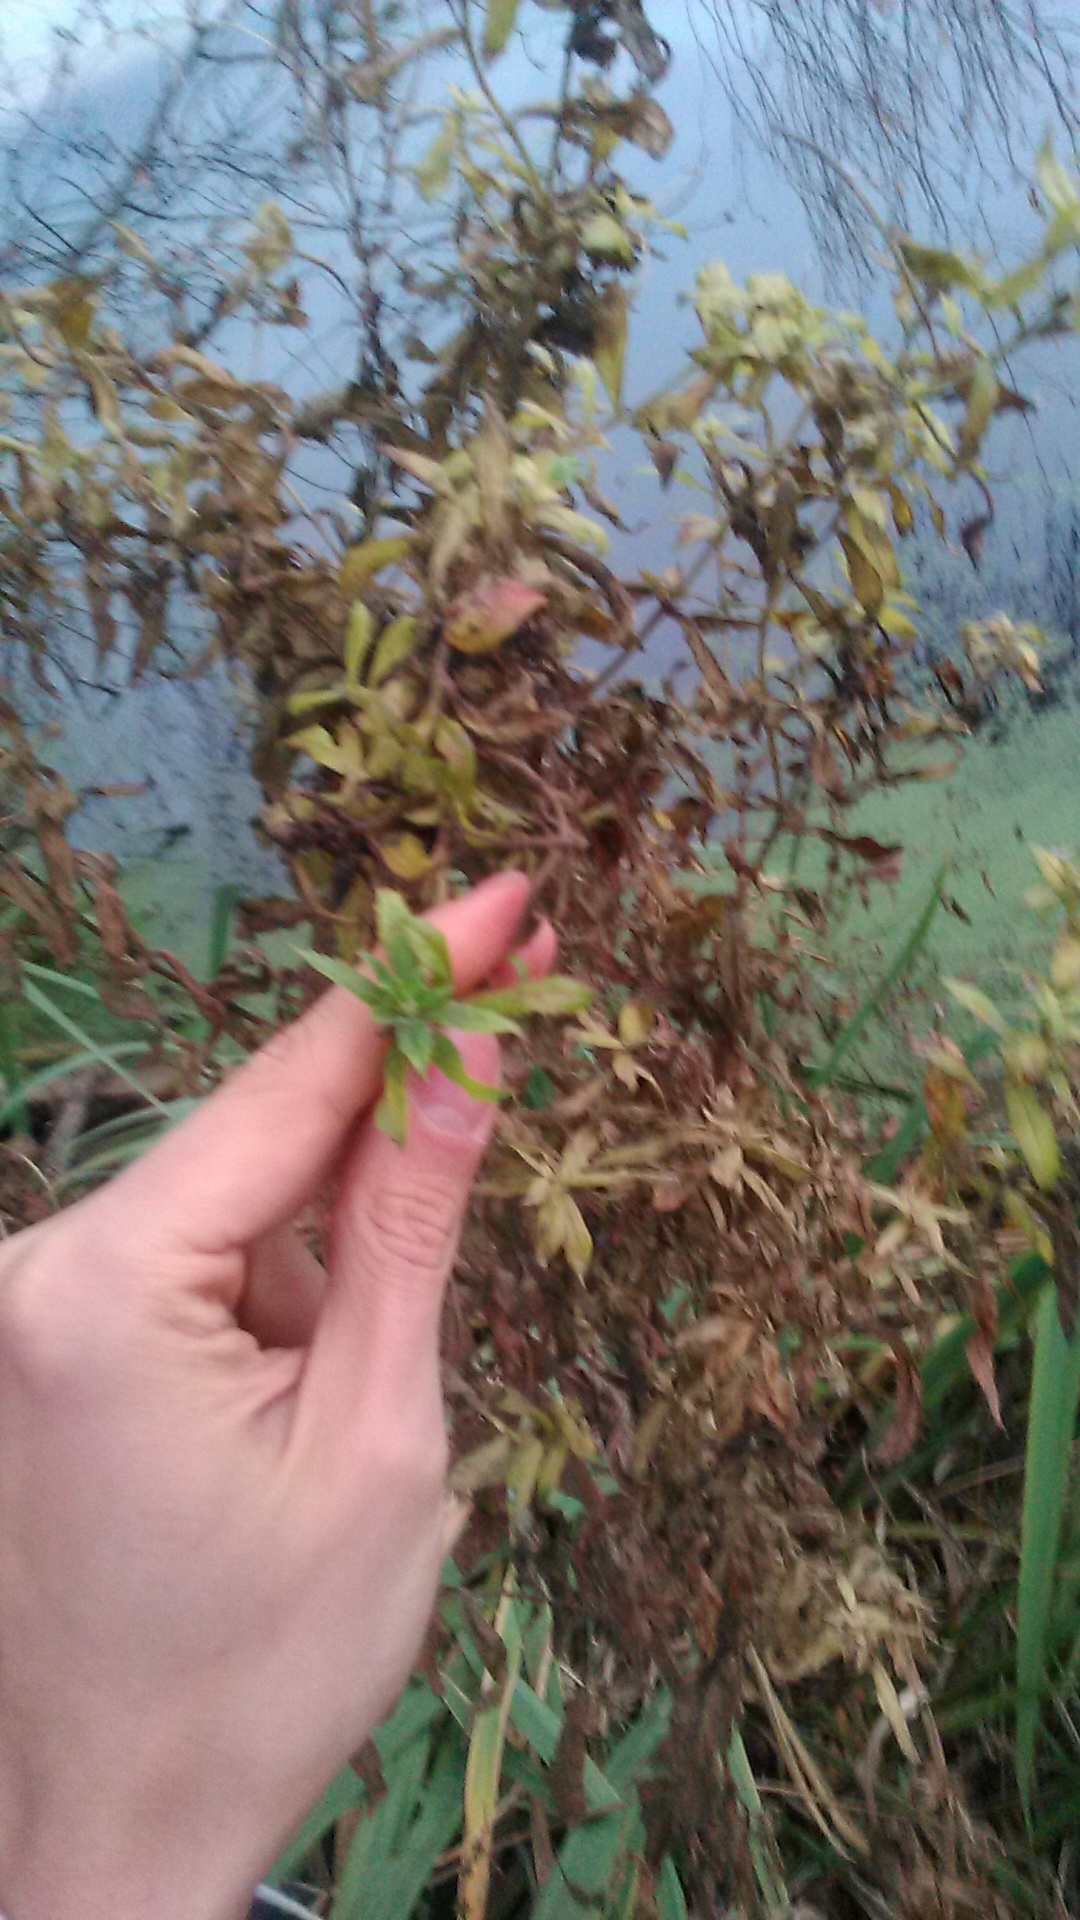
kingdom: Plantae
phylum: Tracheophyta
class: Magnoliopsida
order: Myrtales
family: Onagraceae
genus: Epilobium
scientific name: Epilobium hirsutum
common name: Great willowherb
